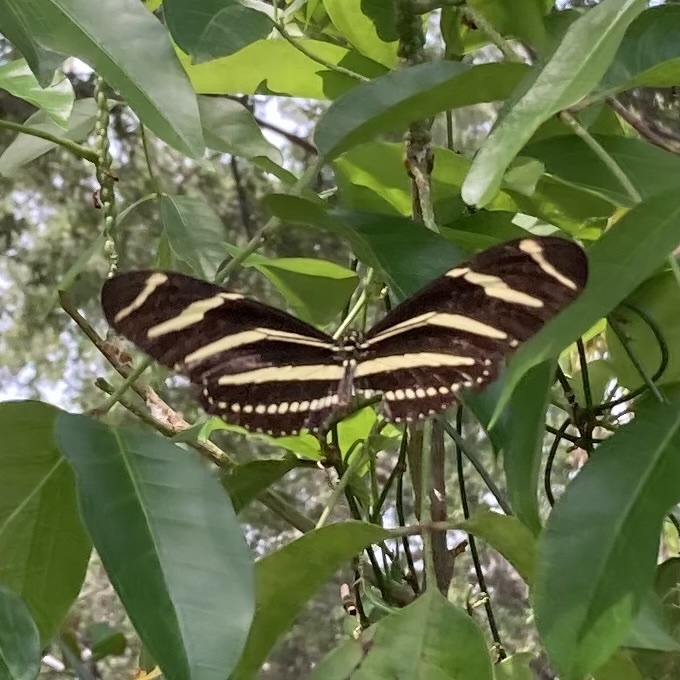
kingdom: Animalia
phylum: Arthropoda
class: Insecta
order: Lepidoptera
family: Nymphalidae
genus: Heliconius
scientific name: Heliconius charithonia
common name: Zebra long wing
